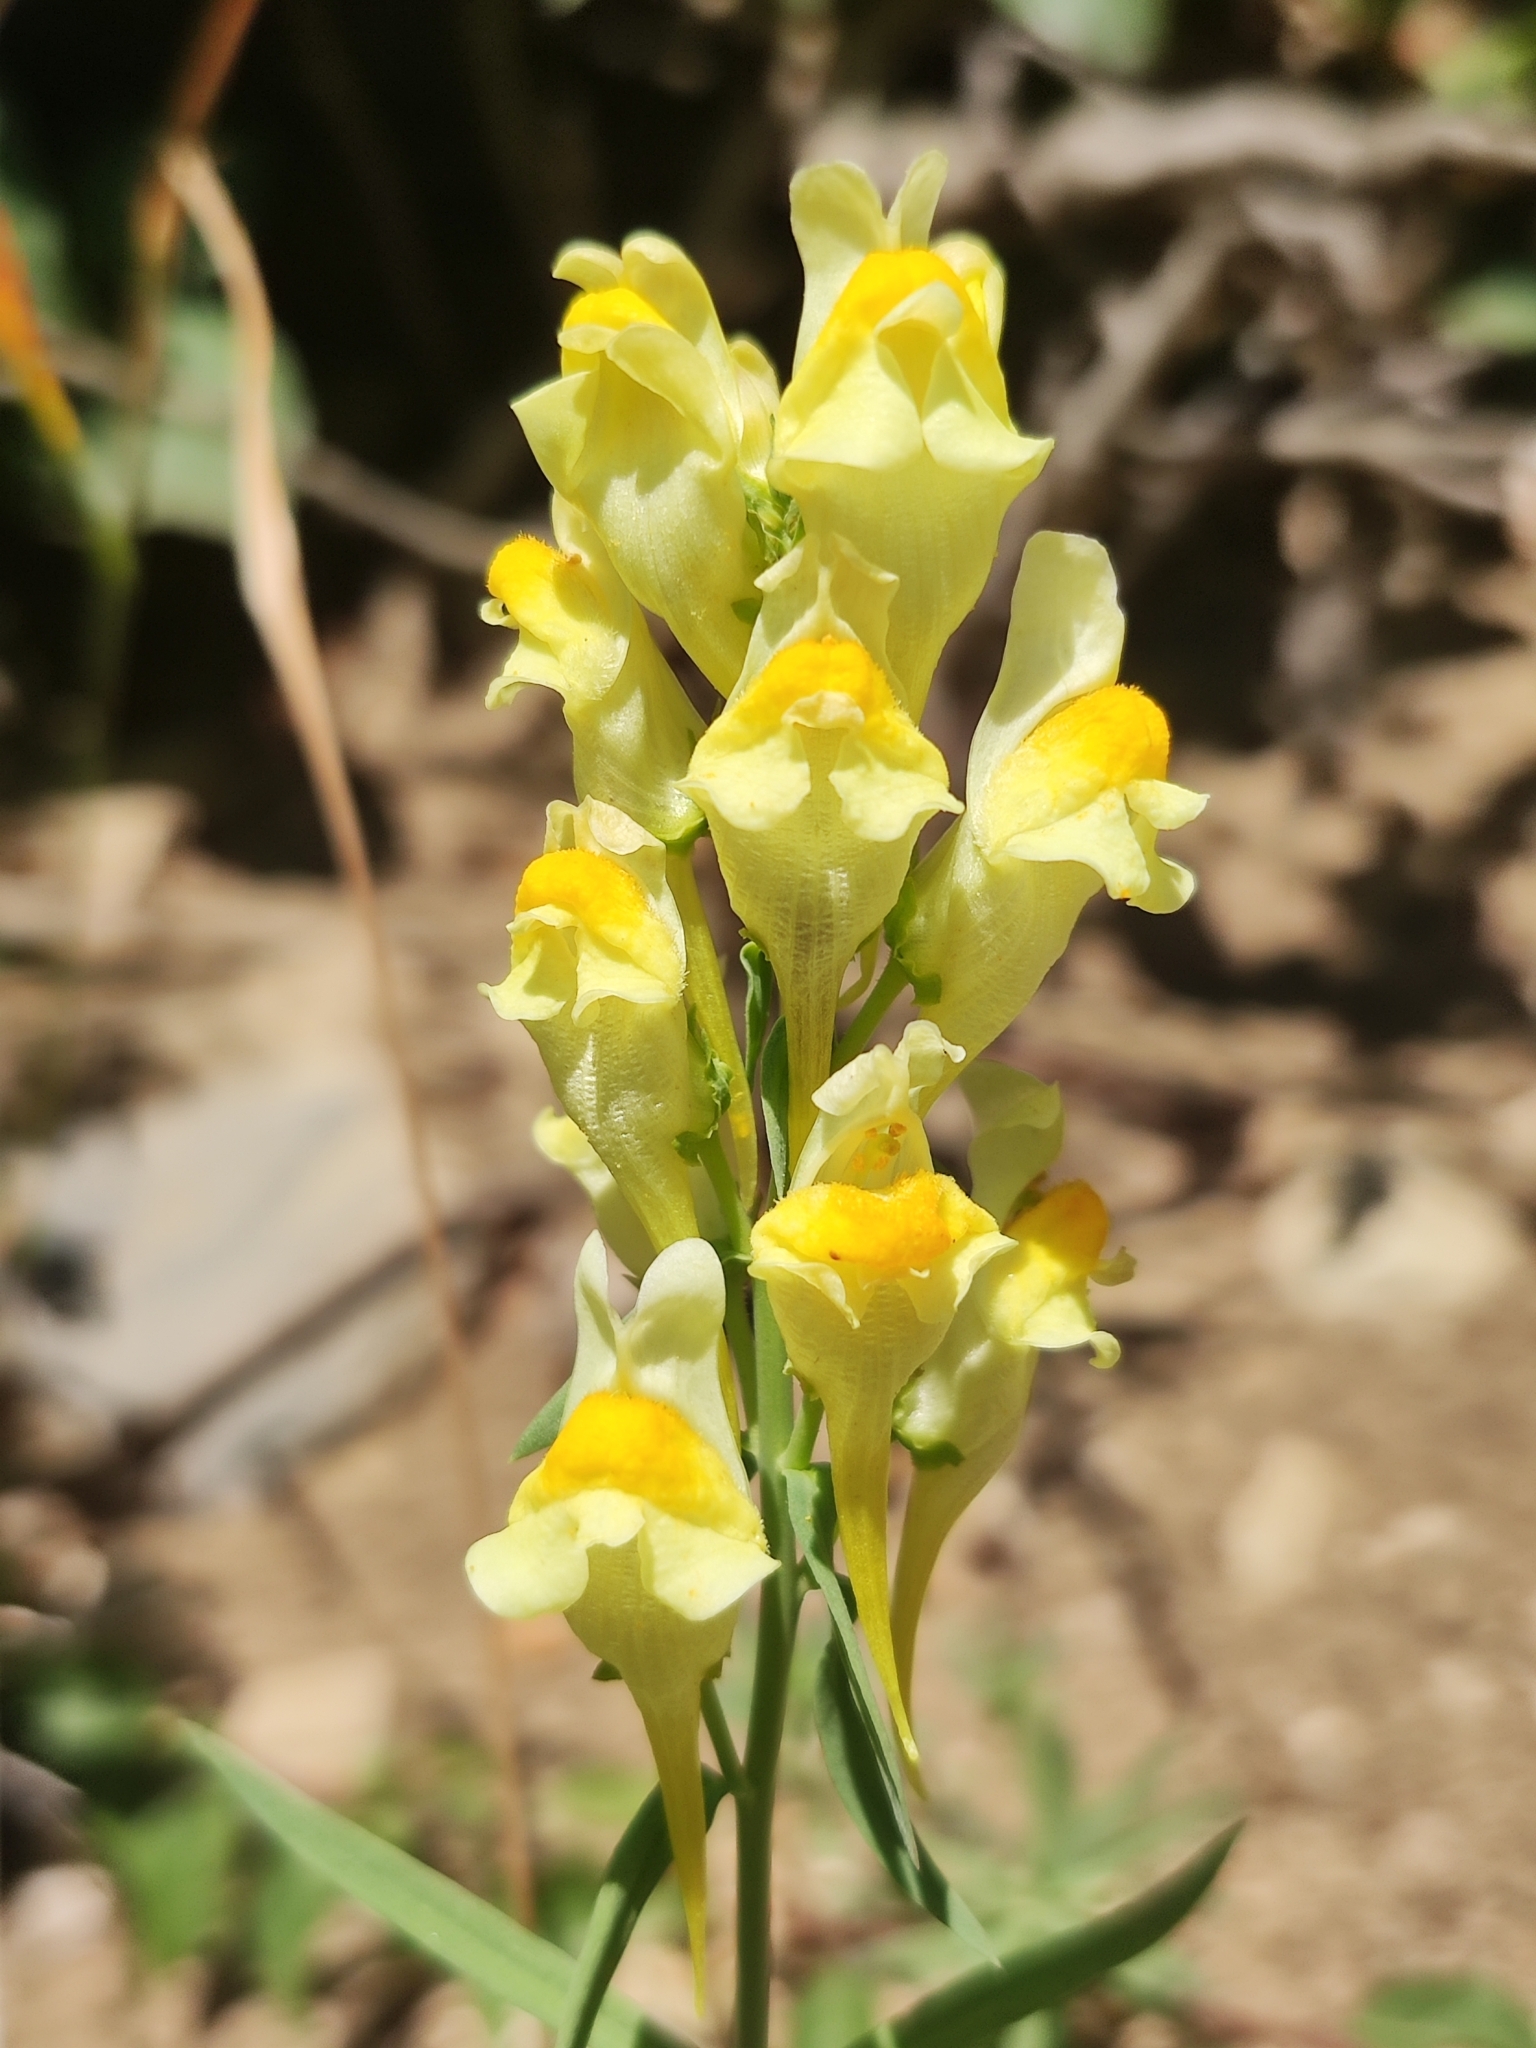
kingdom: Plantae
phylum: Tracheophyta
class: Magnoliopsida
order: Lamiales
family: Plantaginaceae
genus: Linaria
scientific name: Linaria vulgaris
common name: Butter and eggs
